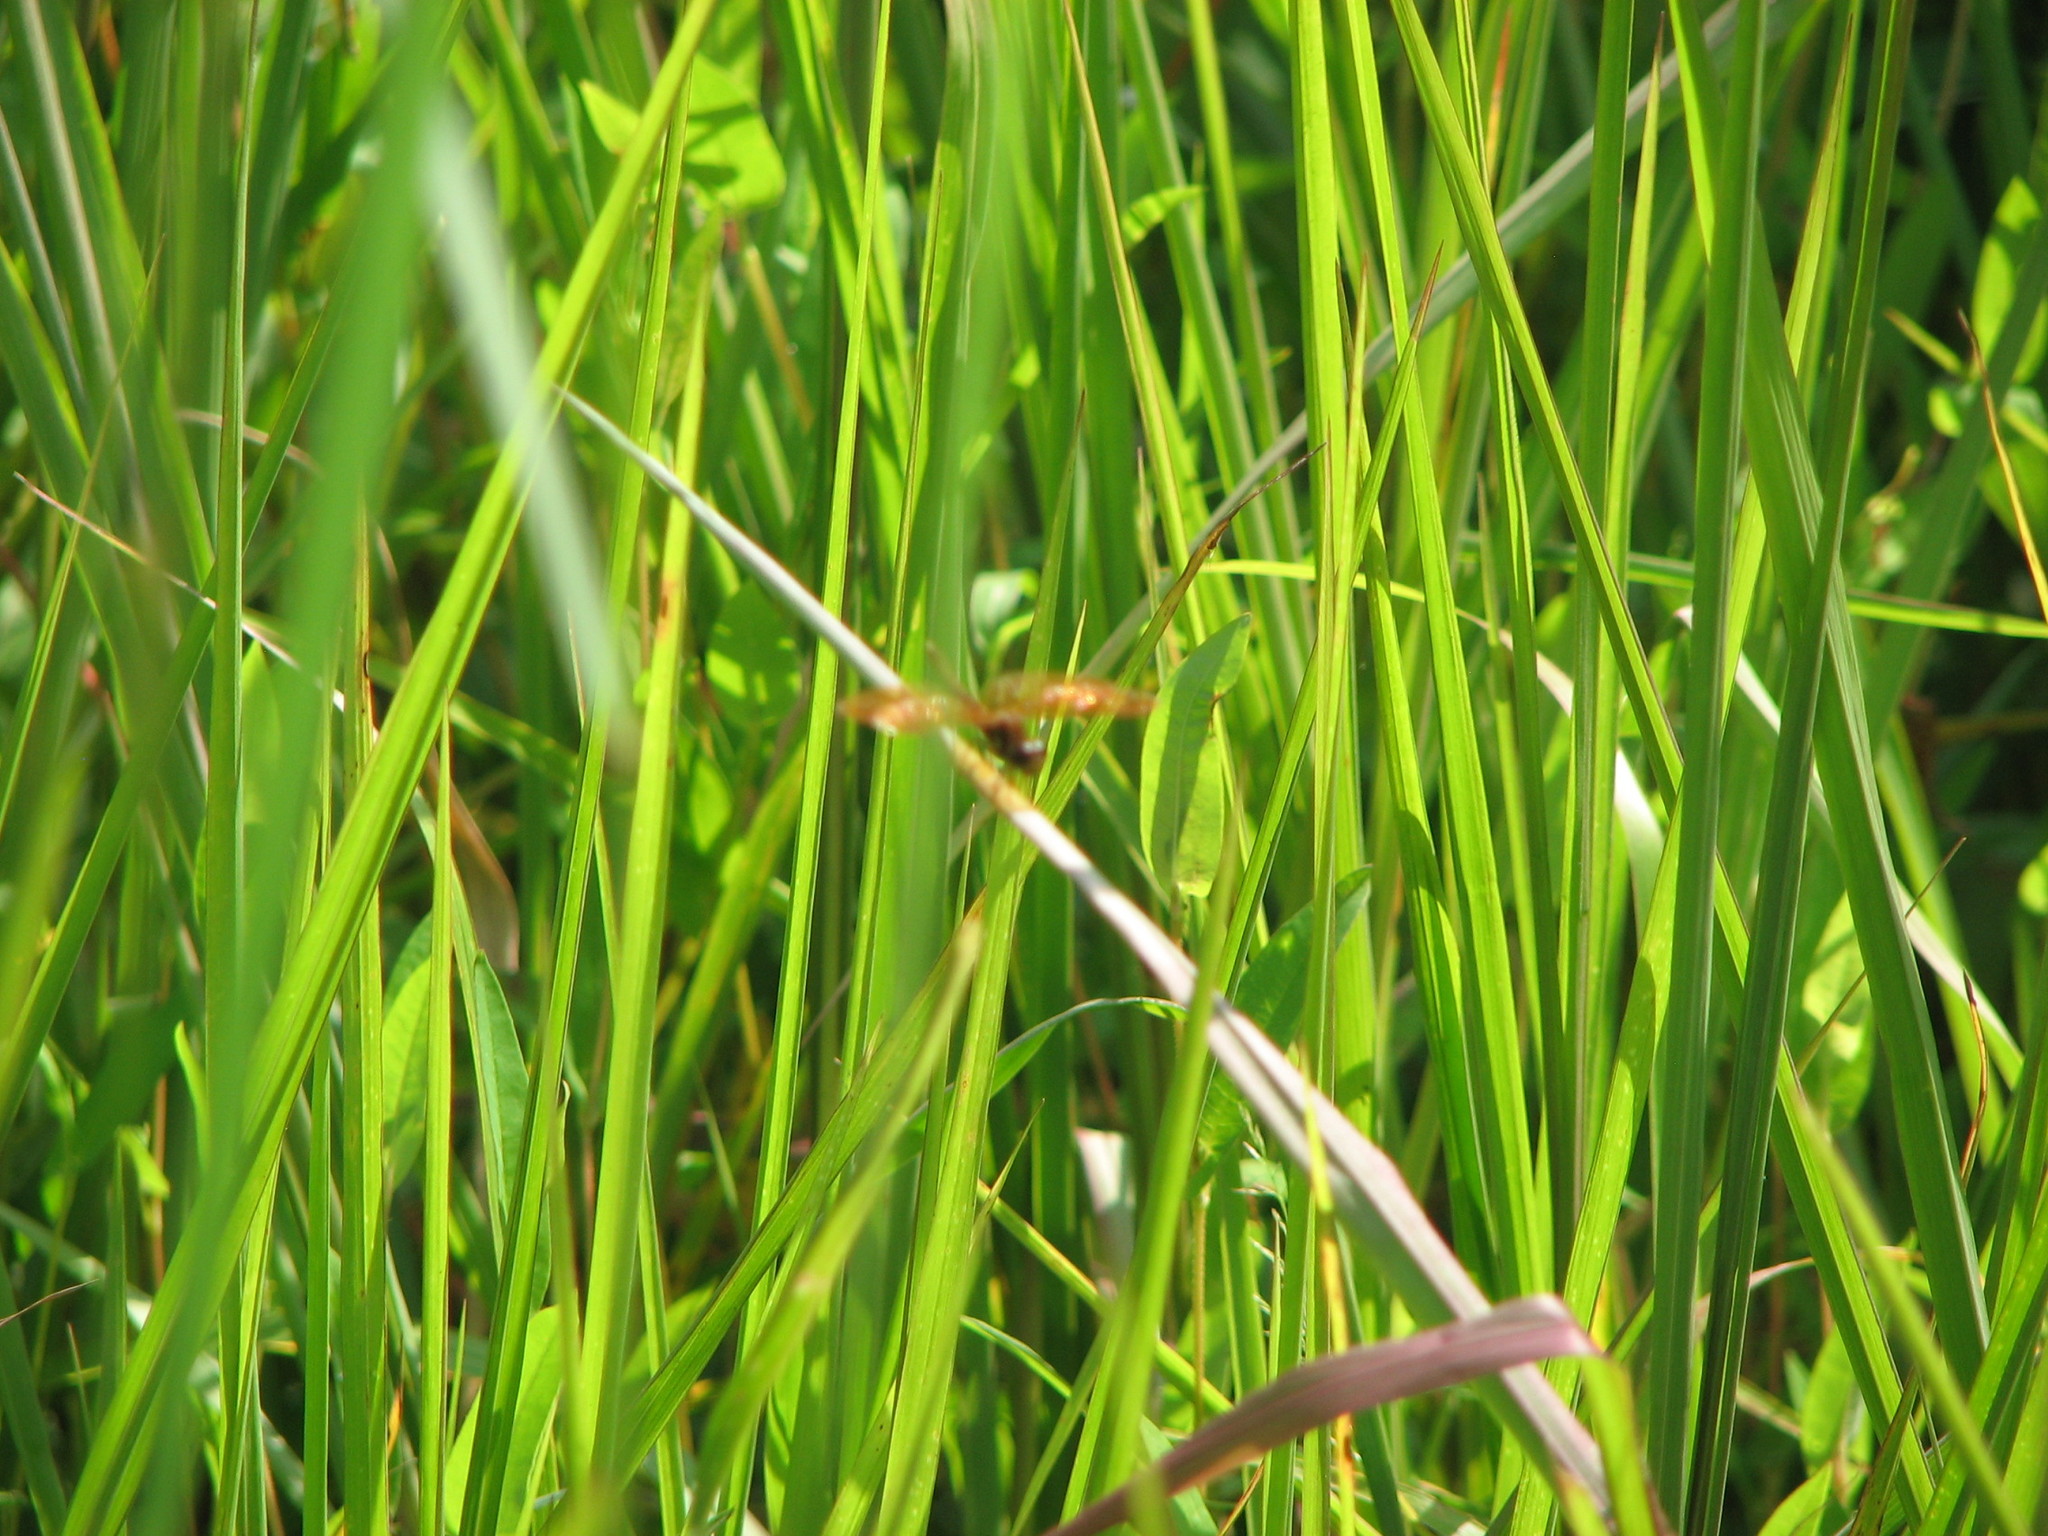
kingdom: Animalia
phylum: Arthropoda
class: Insecta
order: Odonata
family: Libellulidae
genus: Perithemis
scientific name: Perithemis tenera
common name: Eastern amberwing
